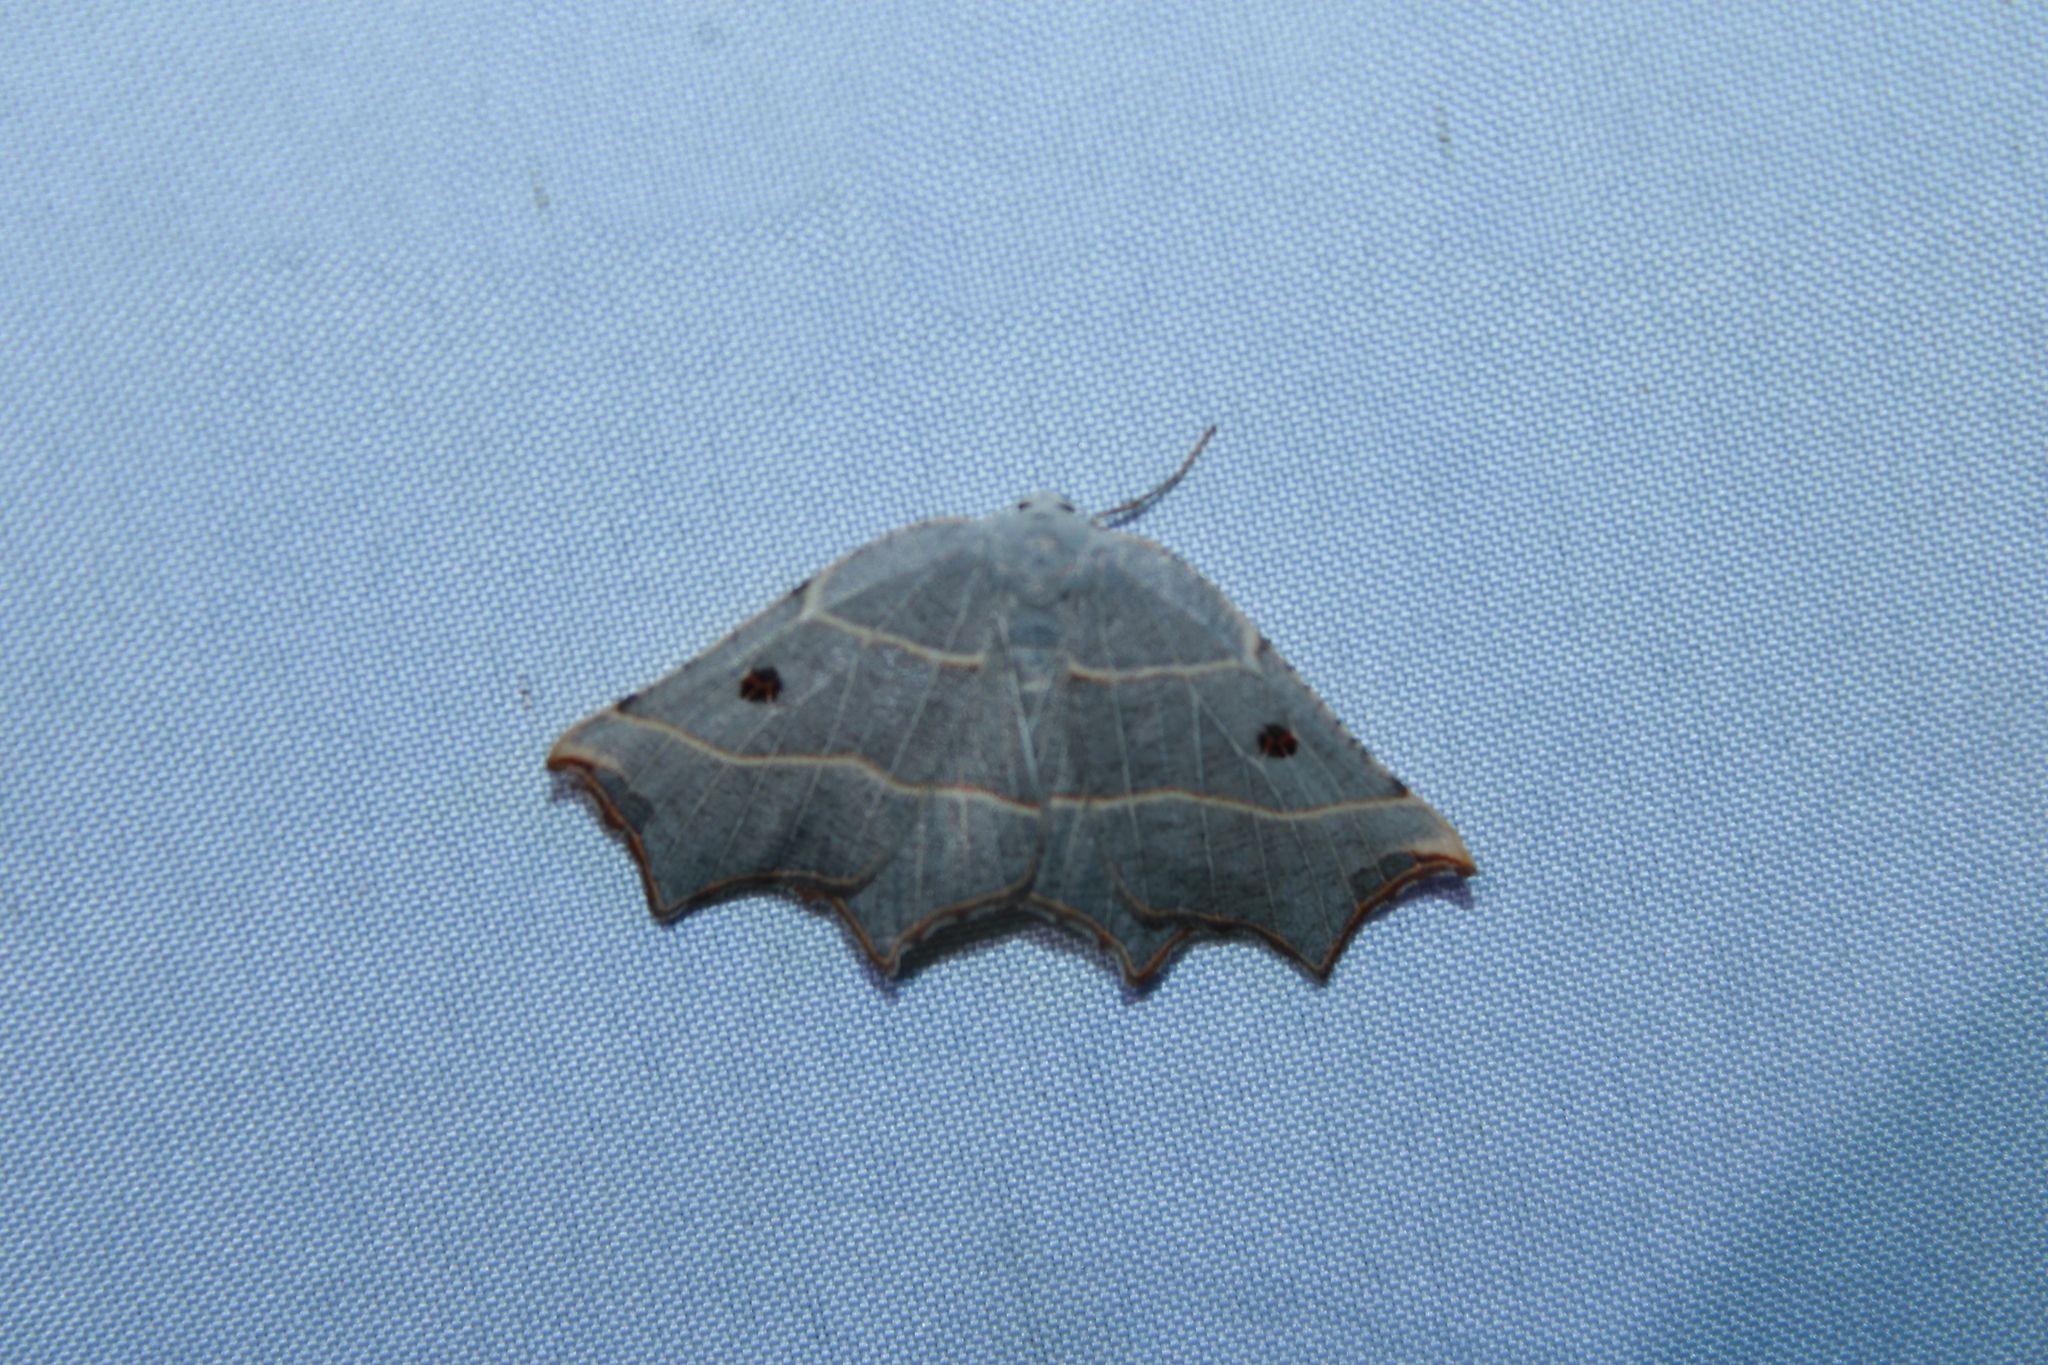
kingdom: Animalia
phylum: Arthropoda
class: Insecta
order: Lepidoptera
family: Geometridae
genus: Metanema
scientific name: Metanema inatomaria
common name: Pale metanema
